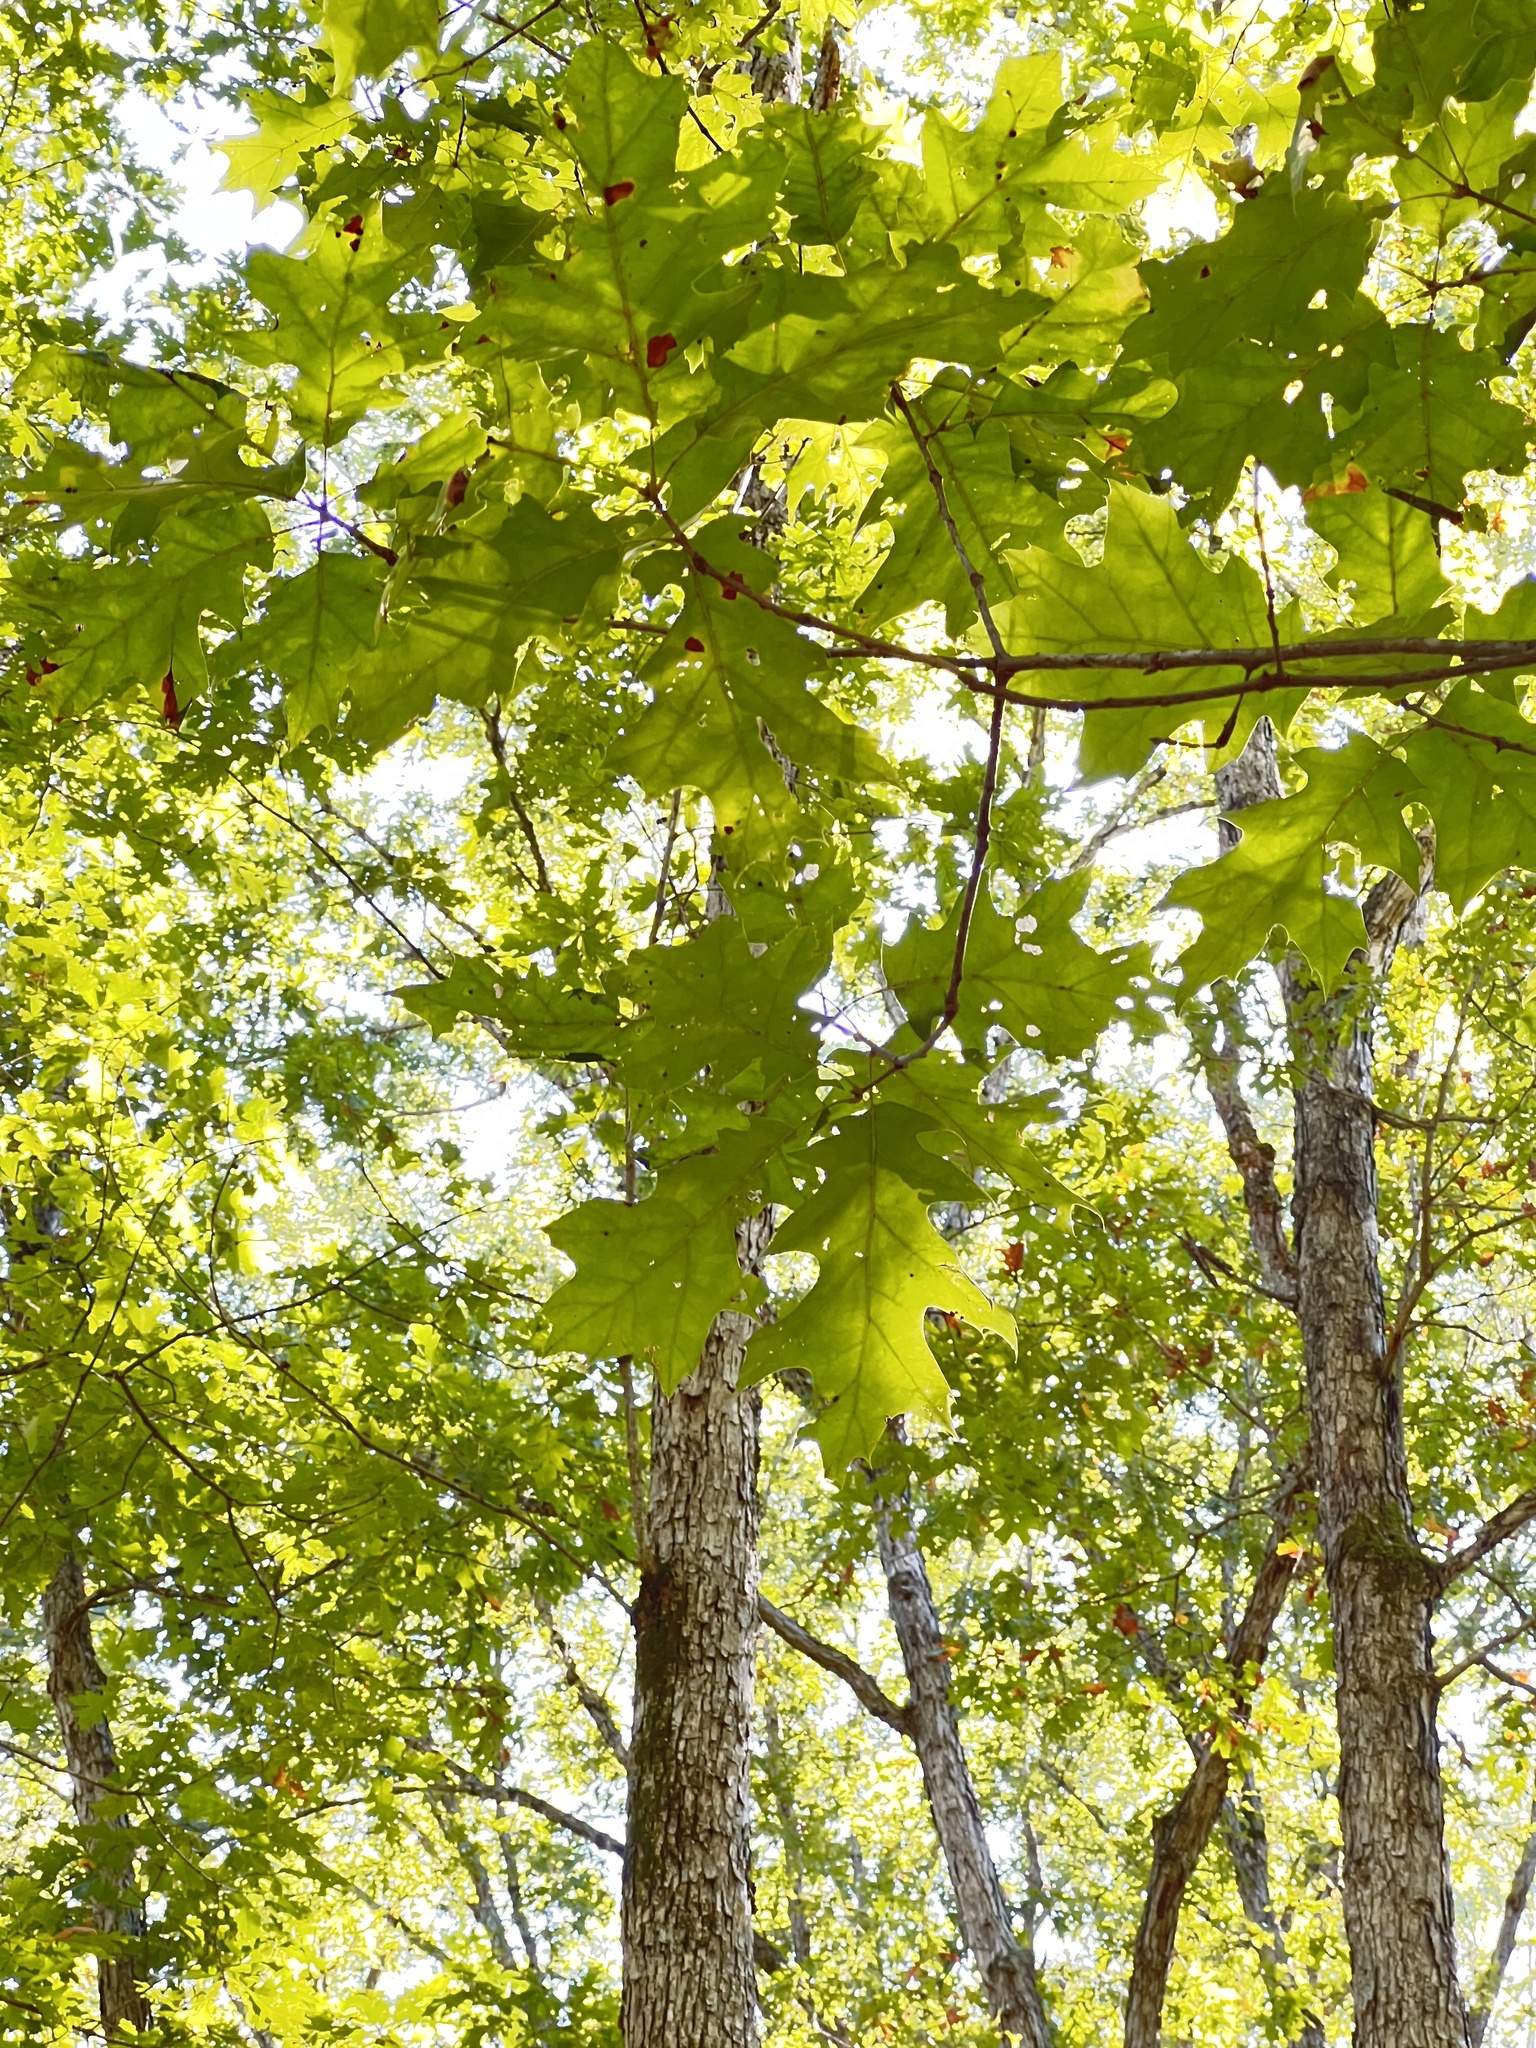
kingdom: Plantae
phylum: Tracheophyta
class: Magnoliopsida
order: Fagales
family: Fagaceae
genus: Quercus
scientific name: Quercus rubra
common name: Red oak
